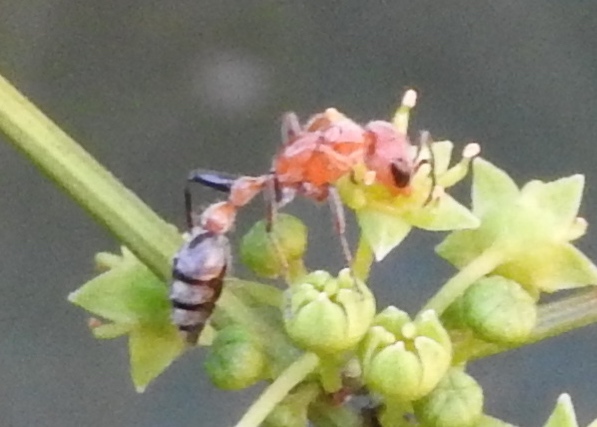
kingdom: Animalia
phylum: Arthropoda
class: Insecta
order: Hymenoptera
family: Formicidae
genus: Pseudomyrmex
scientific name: Pseudomyrmex gracilis
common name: Graceful twig ant
